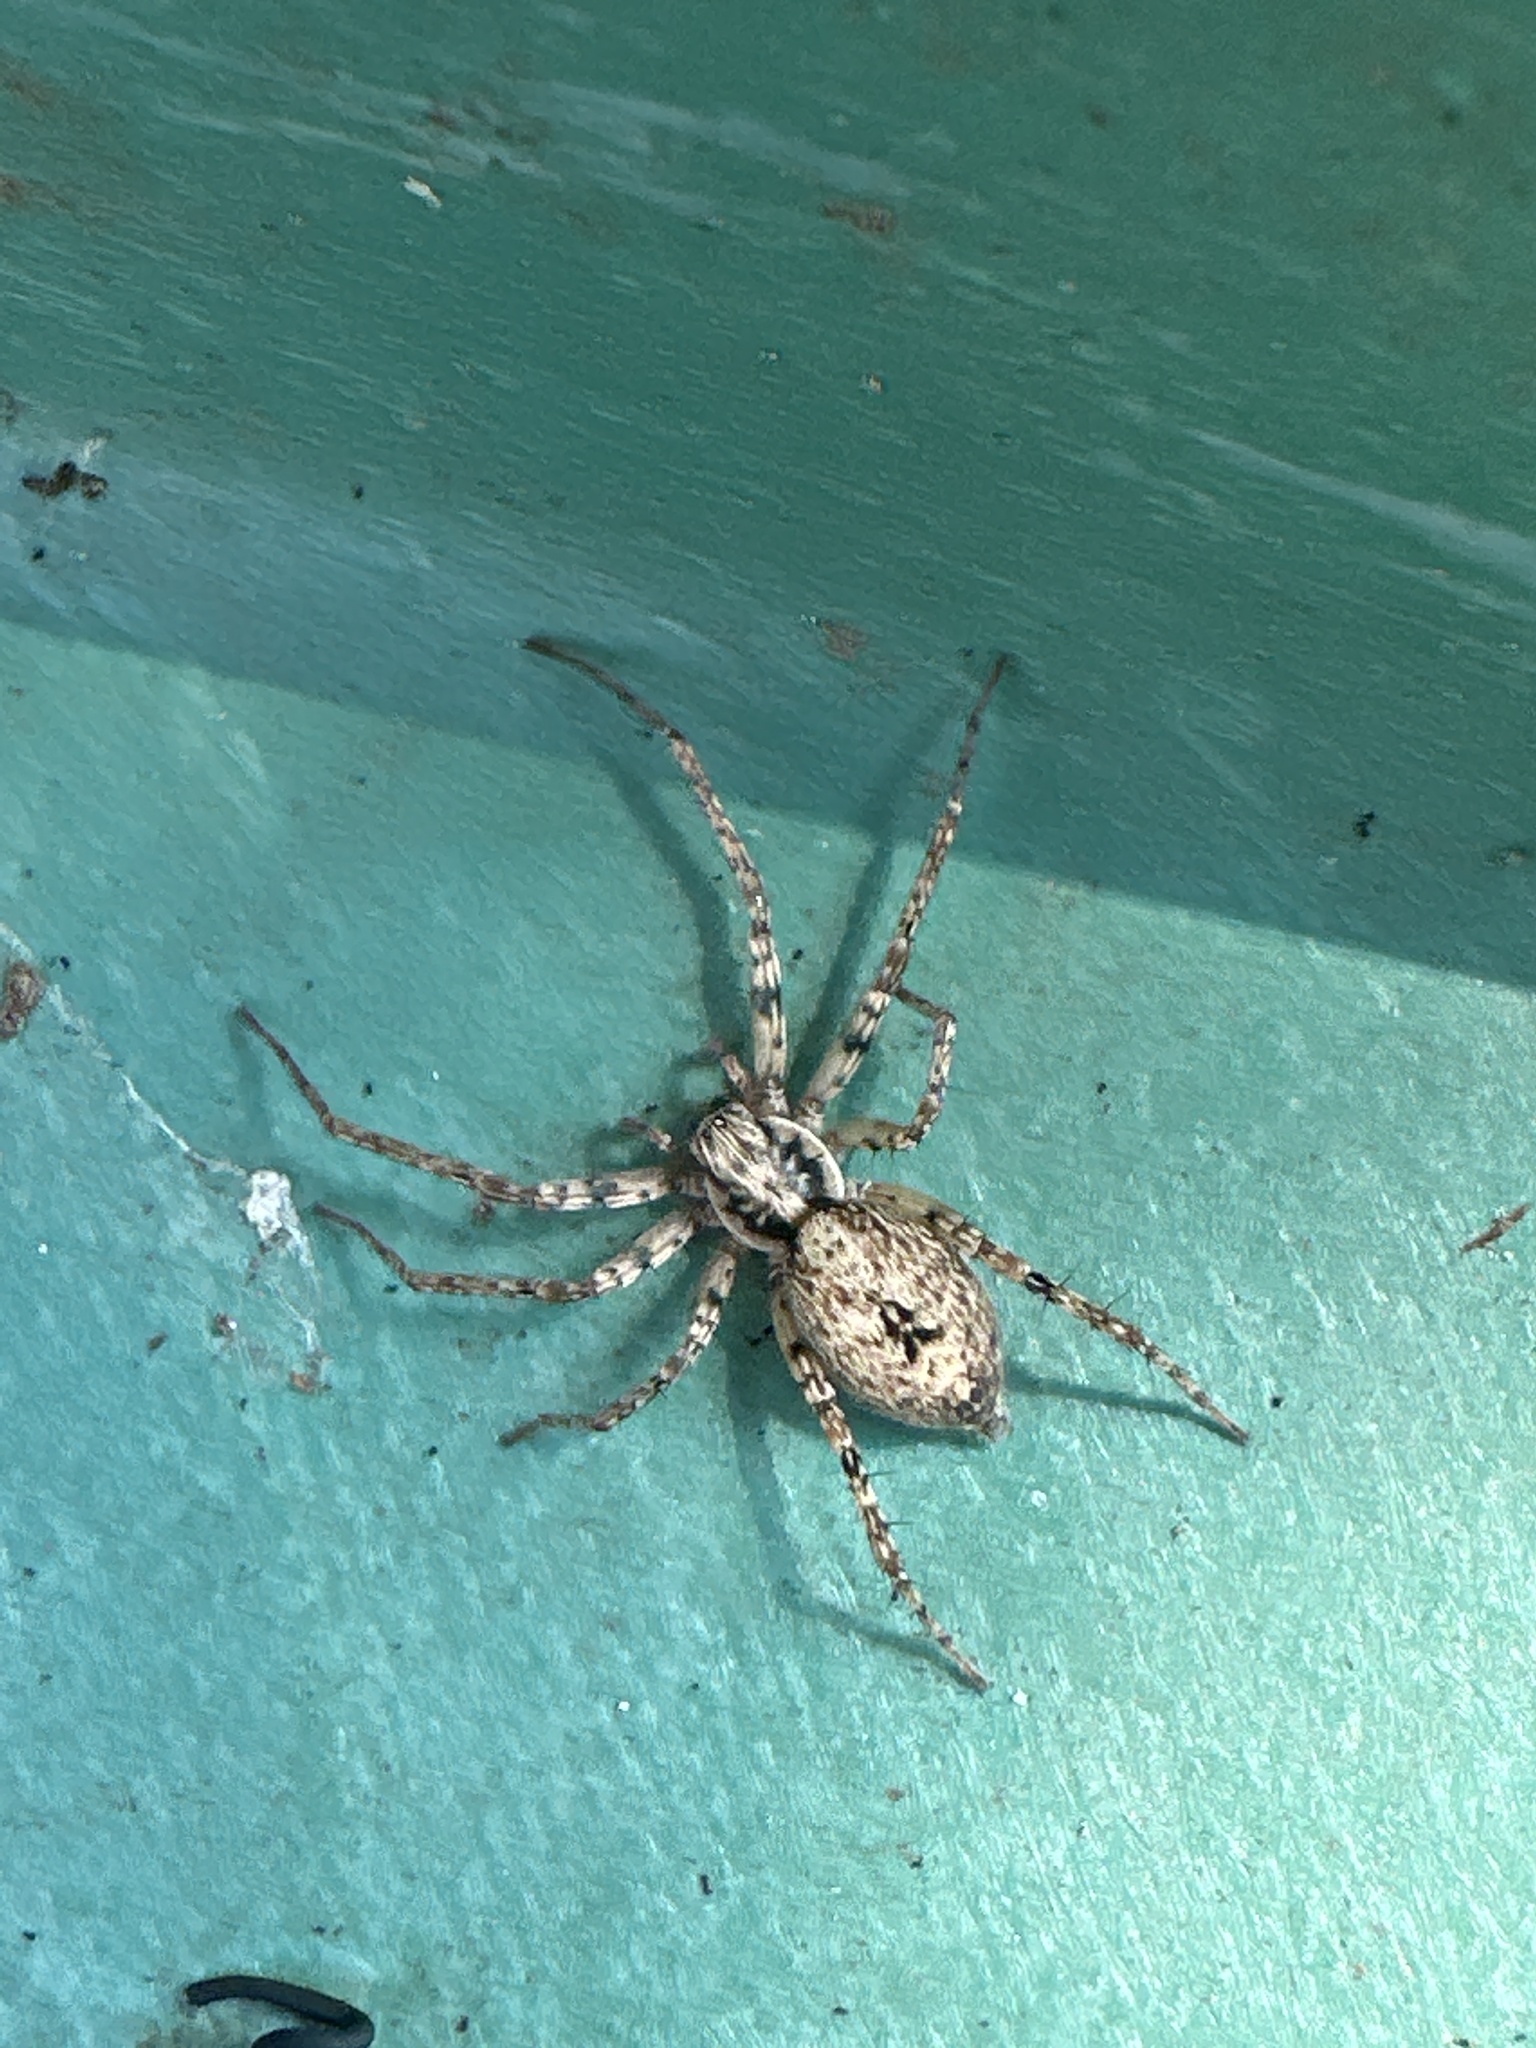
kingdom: Animalia
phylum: Arthropoda
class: Arachnida
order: Araneae
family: Anyphaenidae
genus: Anyphaena
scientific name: Anyphaena accentuata
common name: Buzzing spider
